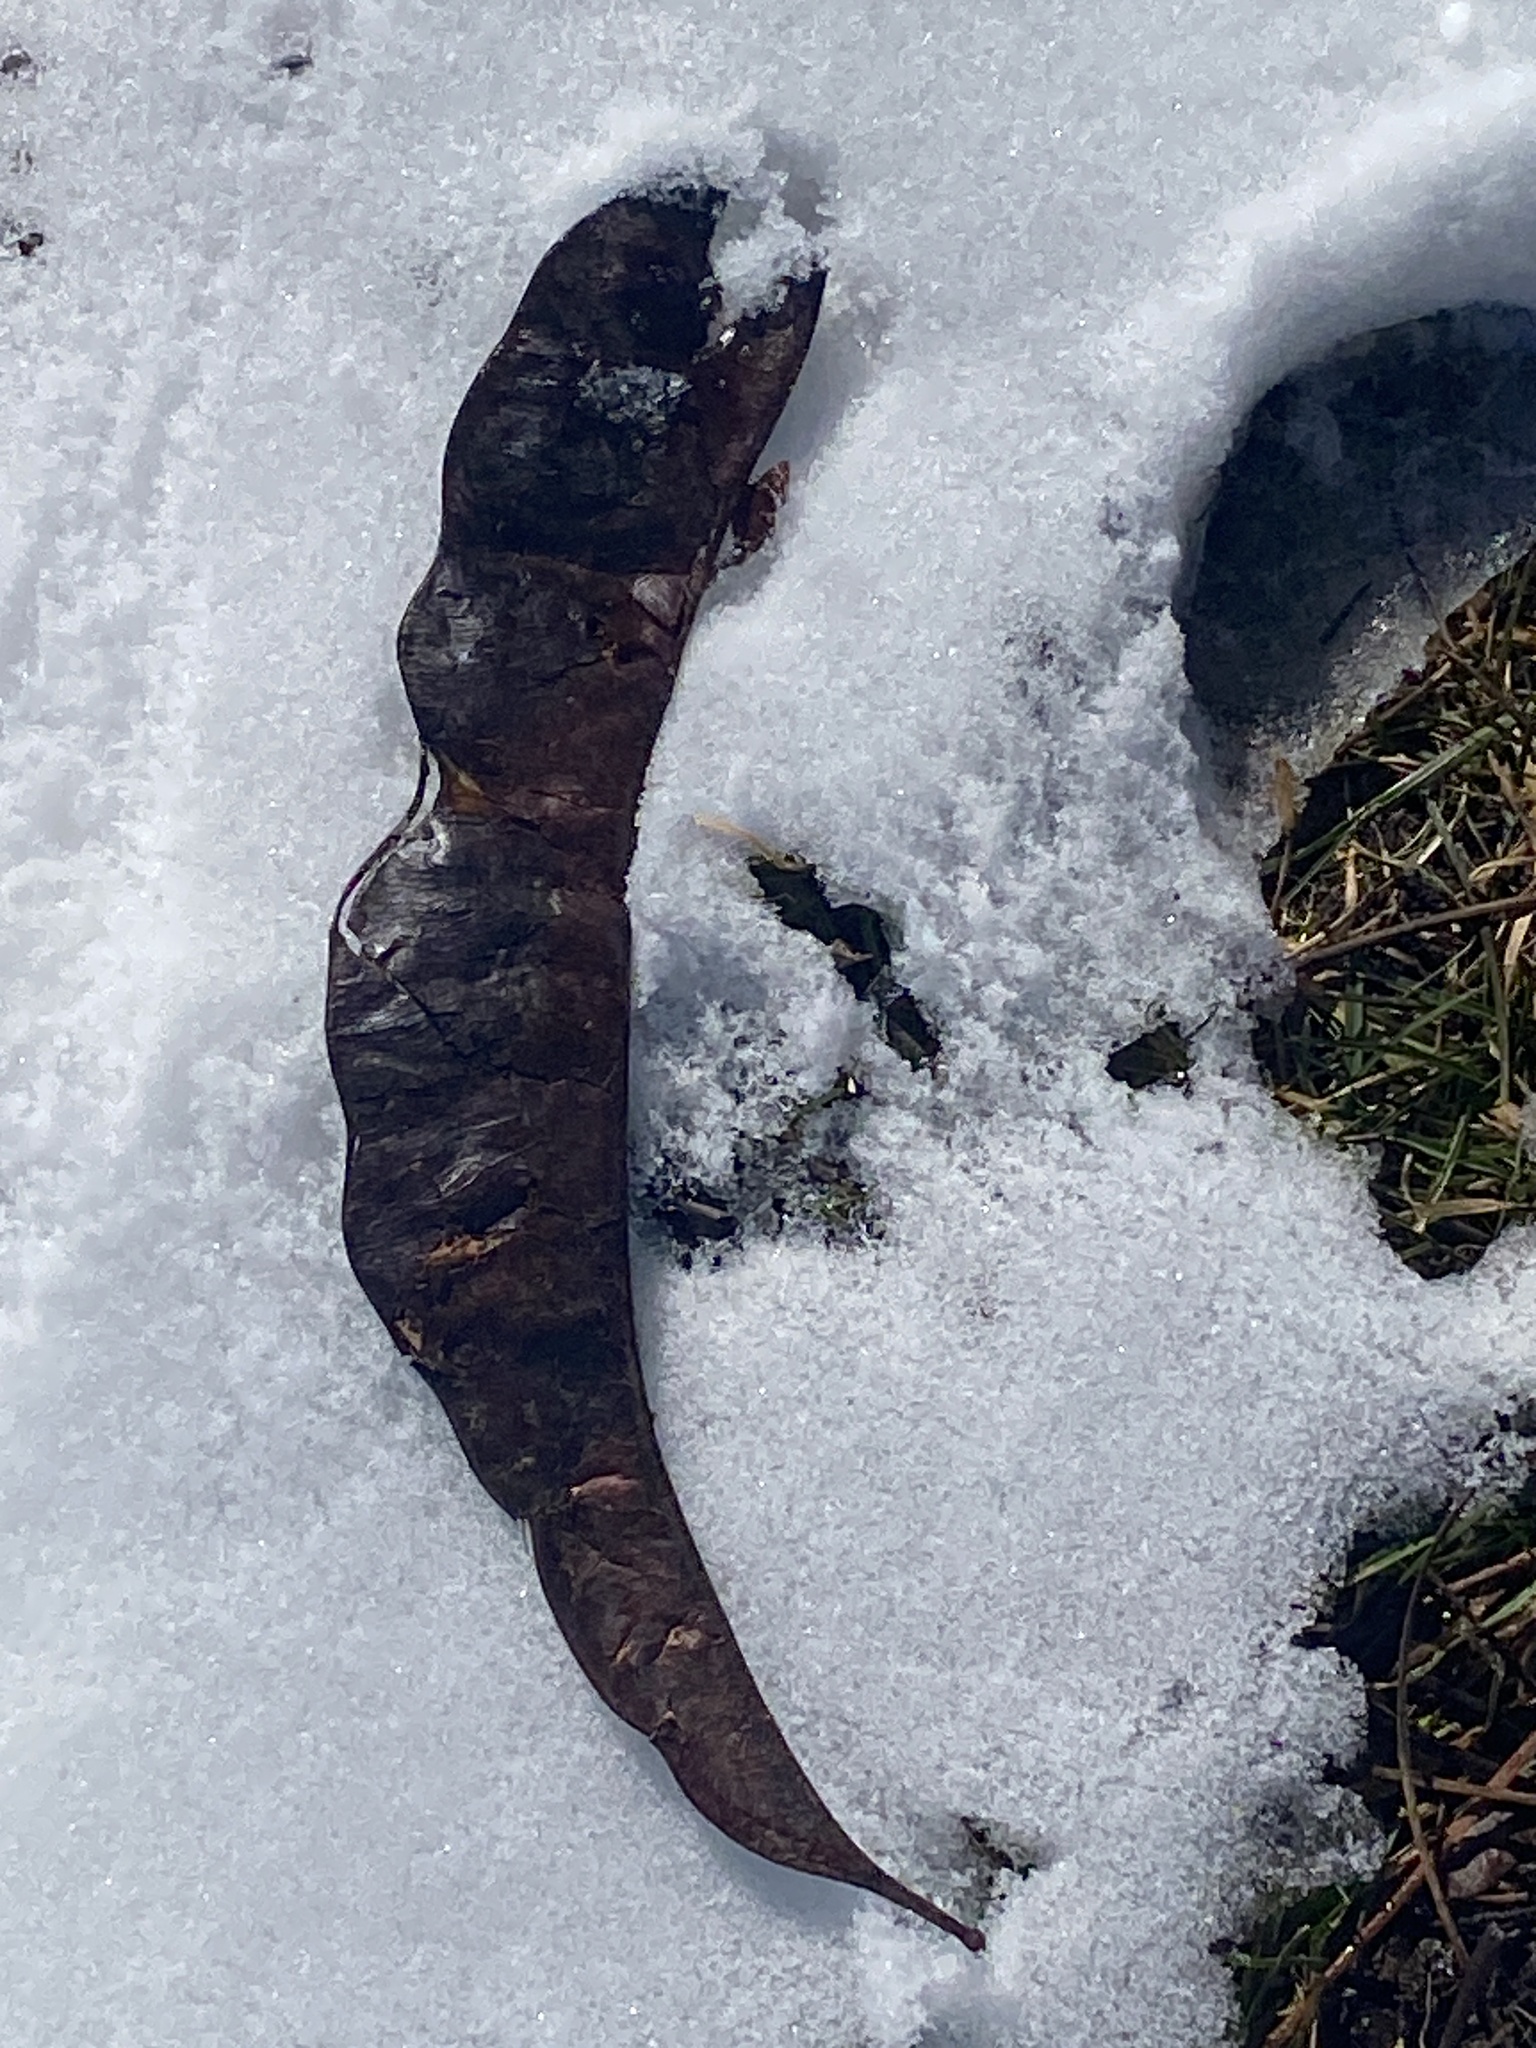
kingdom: Plantae
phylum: Tracheophyta
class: Magnoliopsida
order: Fabales
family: Fabaceae
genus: Gleditsia
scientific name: Gleditsia triacanthos
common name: Common honeylocust
